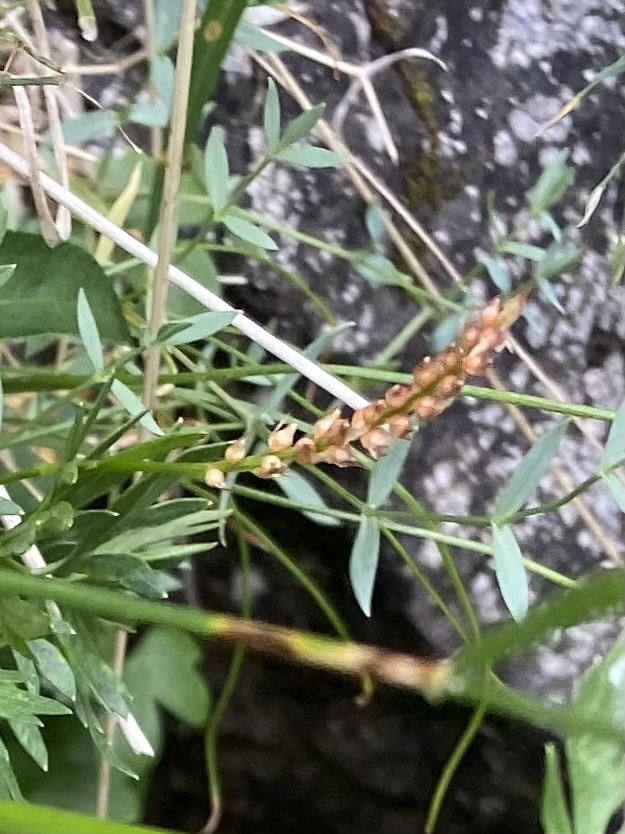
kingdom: Plantae
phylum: Tracheophyta
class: Magnoliopsida
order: Caryophyllales
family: Polygonaceae
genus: Bistorta
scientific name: Bistorta vivipara
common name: Alpine bistort
